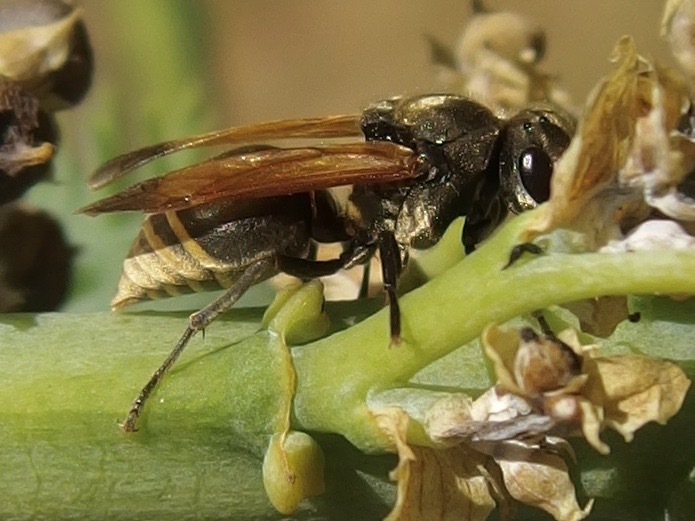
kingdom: Animalia
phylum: Arthropoda
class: Insecta
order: Hymenoptera
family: Vespidae
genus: Brachygastra
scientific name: Brachygastra mellifica
